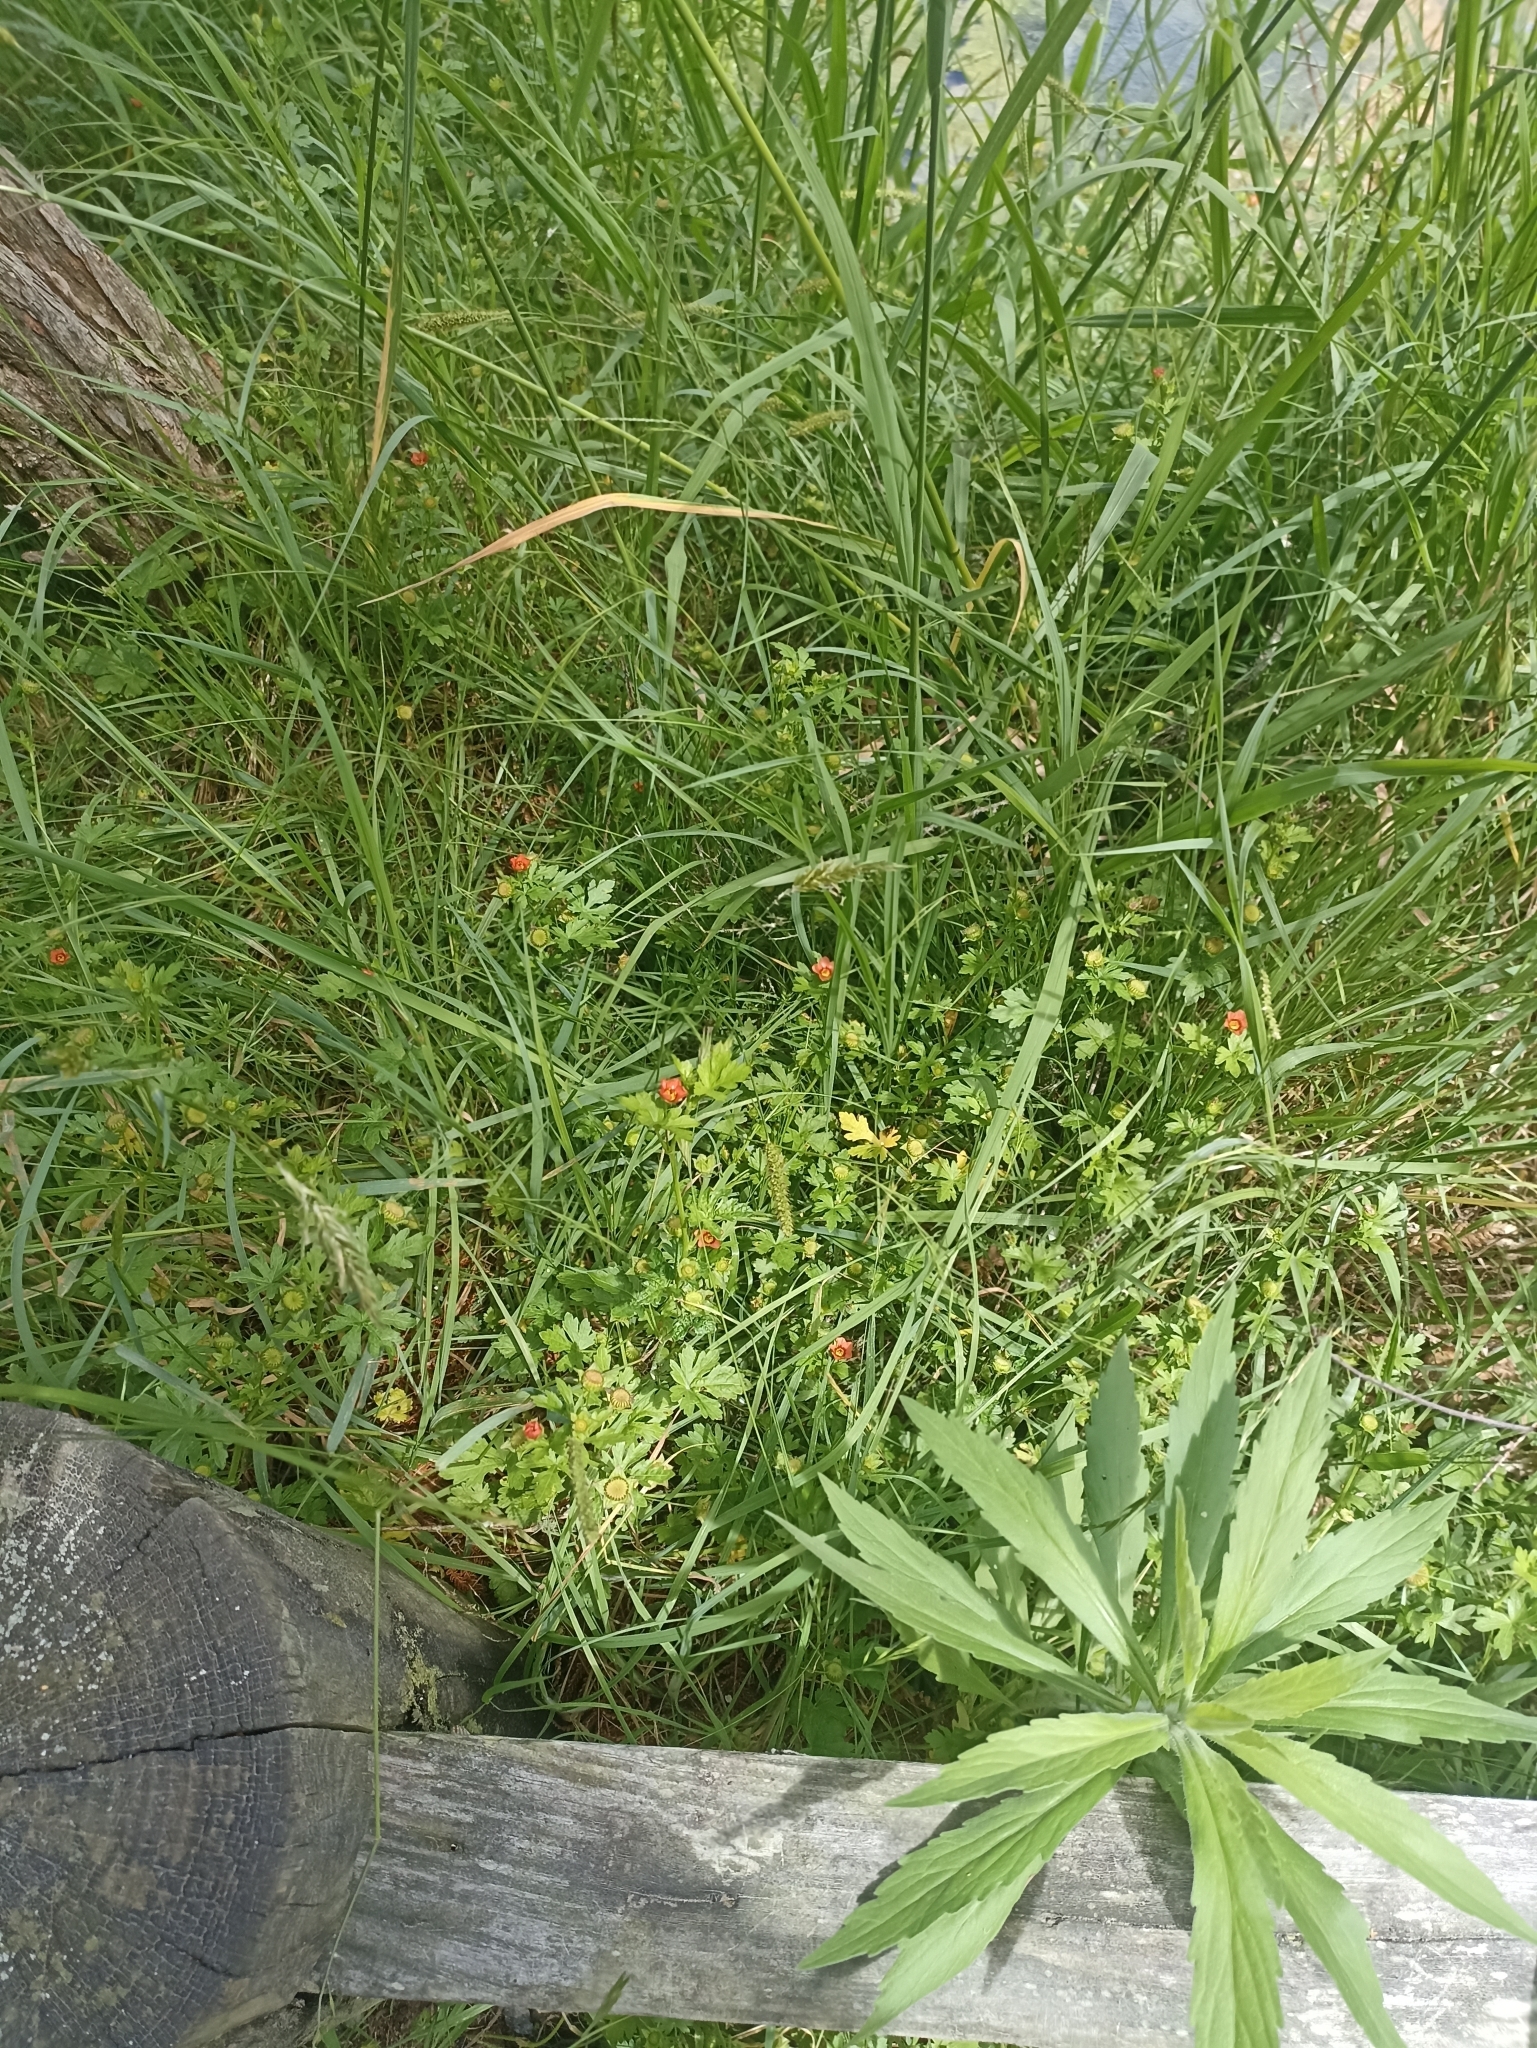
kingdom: Plantae
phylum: Tracheophyta
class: Magnoliopsida
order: Malvales
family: Malvaceae
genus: Modiola
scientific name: Modiola caroliniana
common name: Carolina bristlemallow
